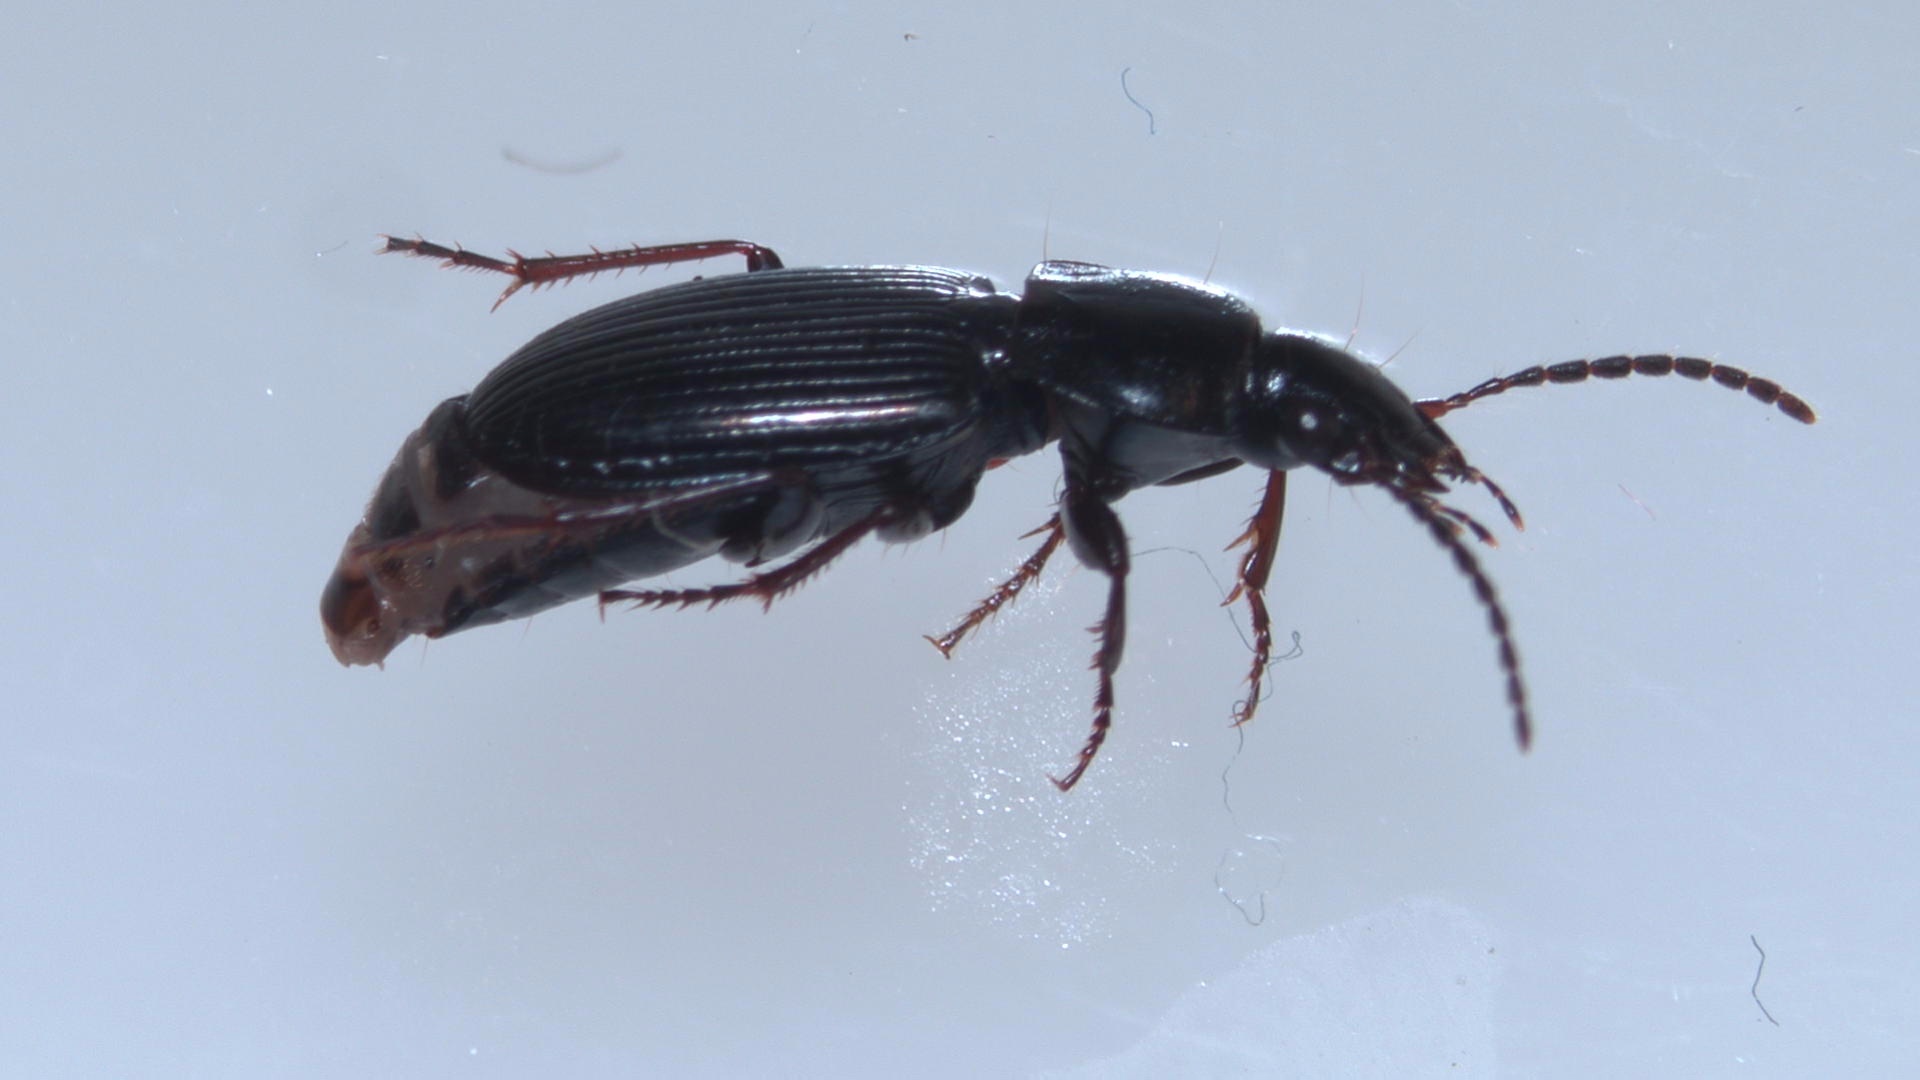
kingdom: Animalia
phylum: Arthropoda
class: Insecta
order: Coleoptera
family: Carabidae
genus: Pterostichus
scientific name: Pterostichus vernalis
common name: Spring harp ground beetle
